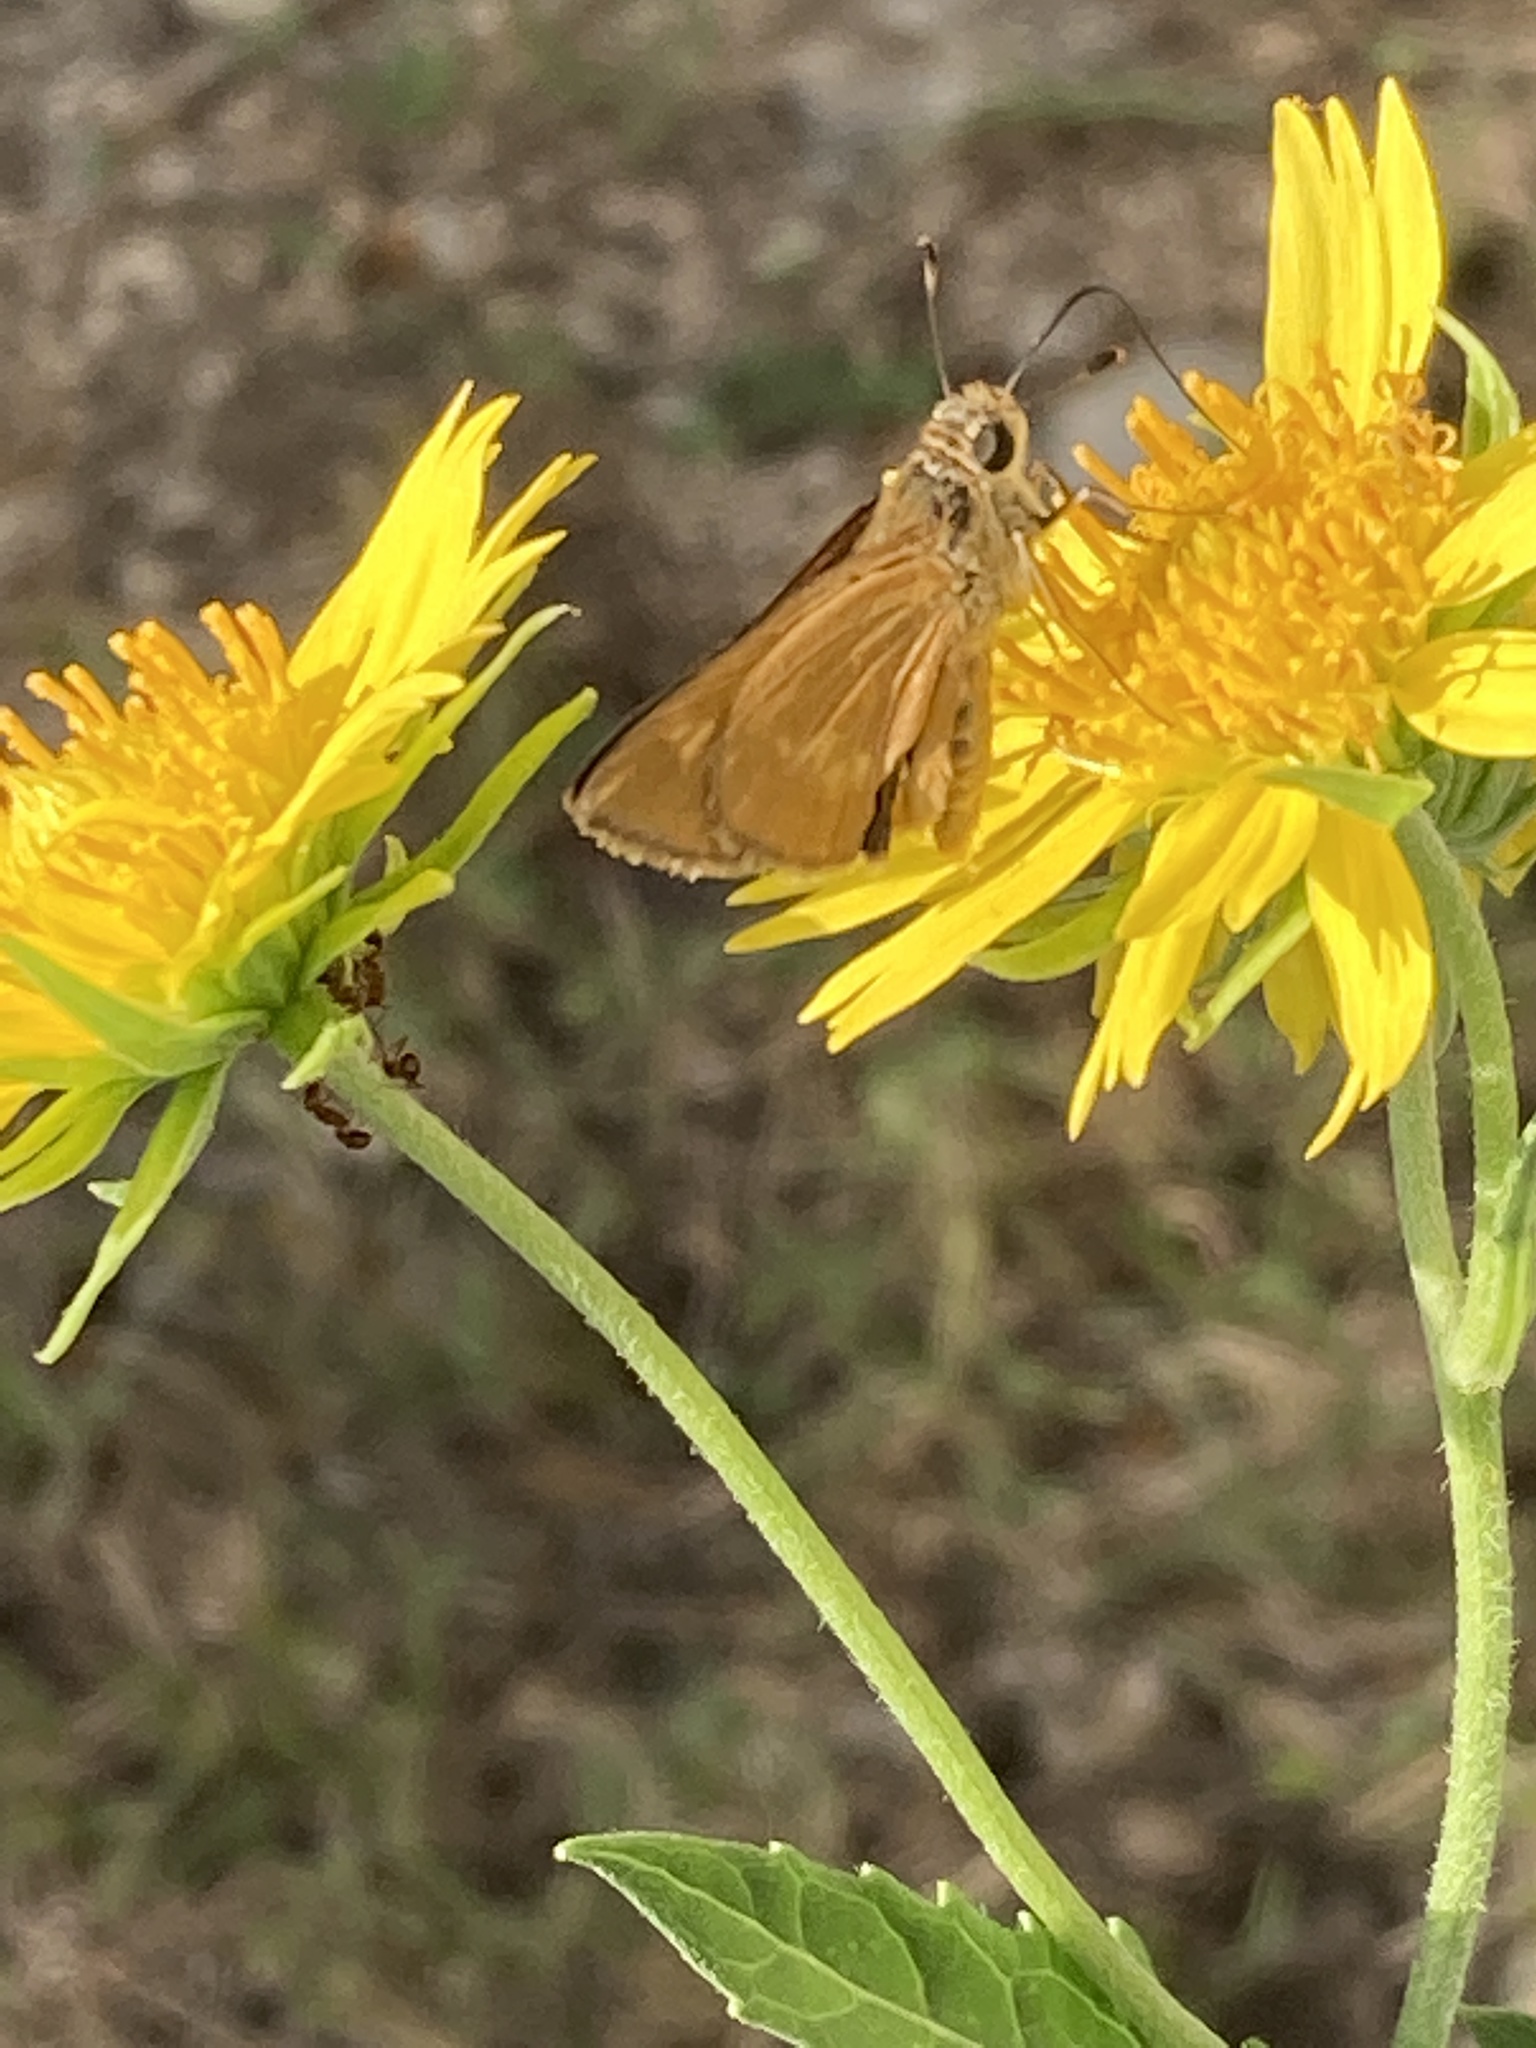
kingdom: Animalia
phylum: Arthropoda
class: Insecta
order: Lepidoptera
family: Hesperiidae
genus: Polites
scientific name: Polites otho
